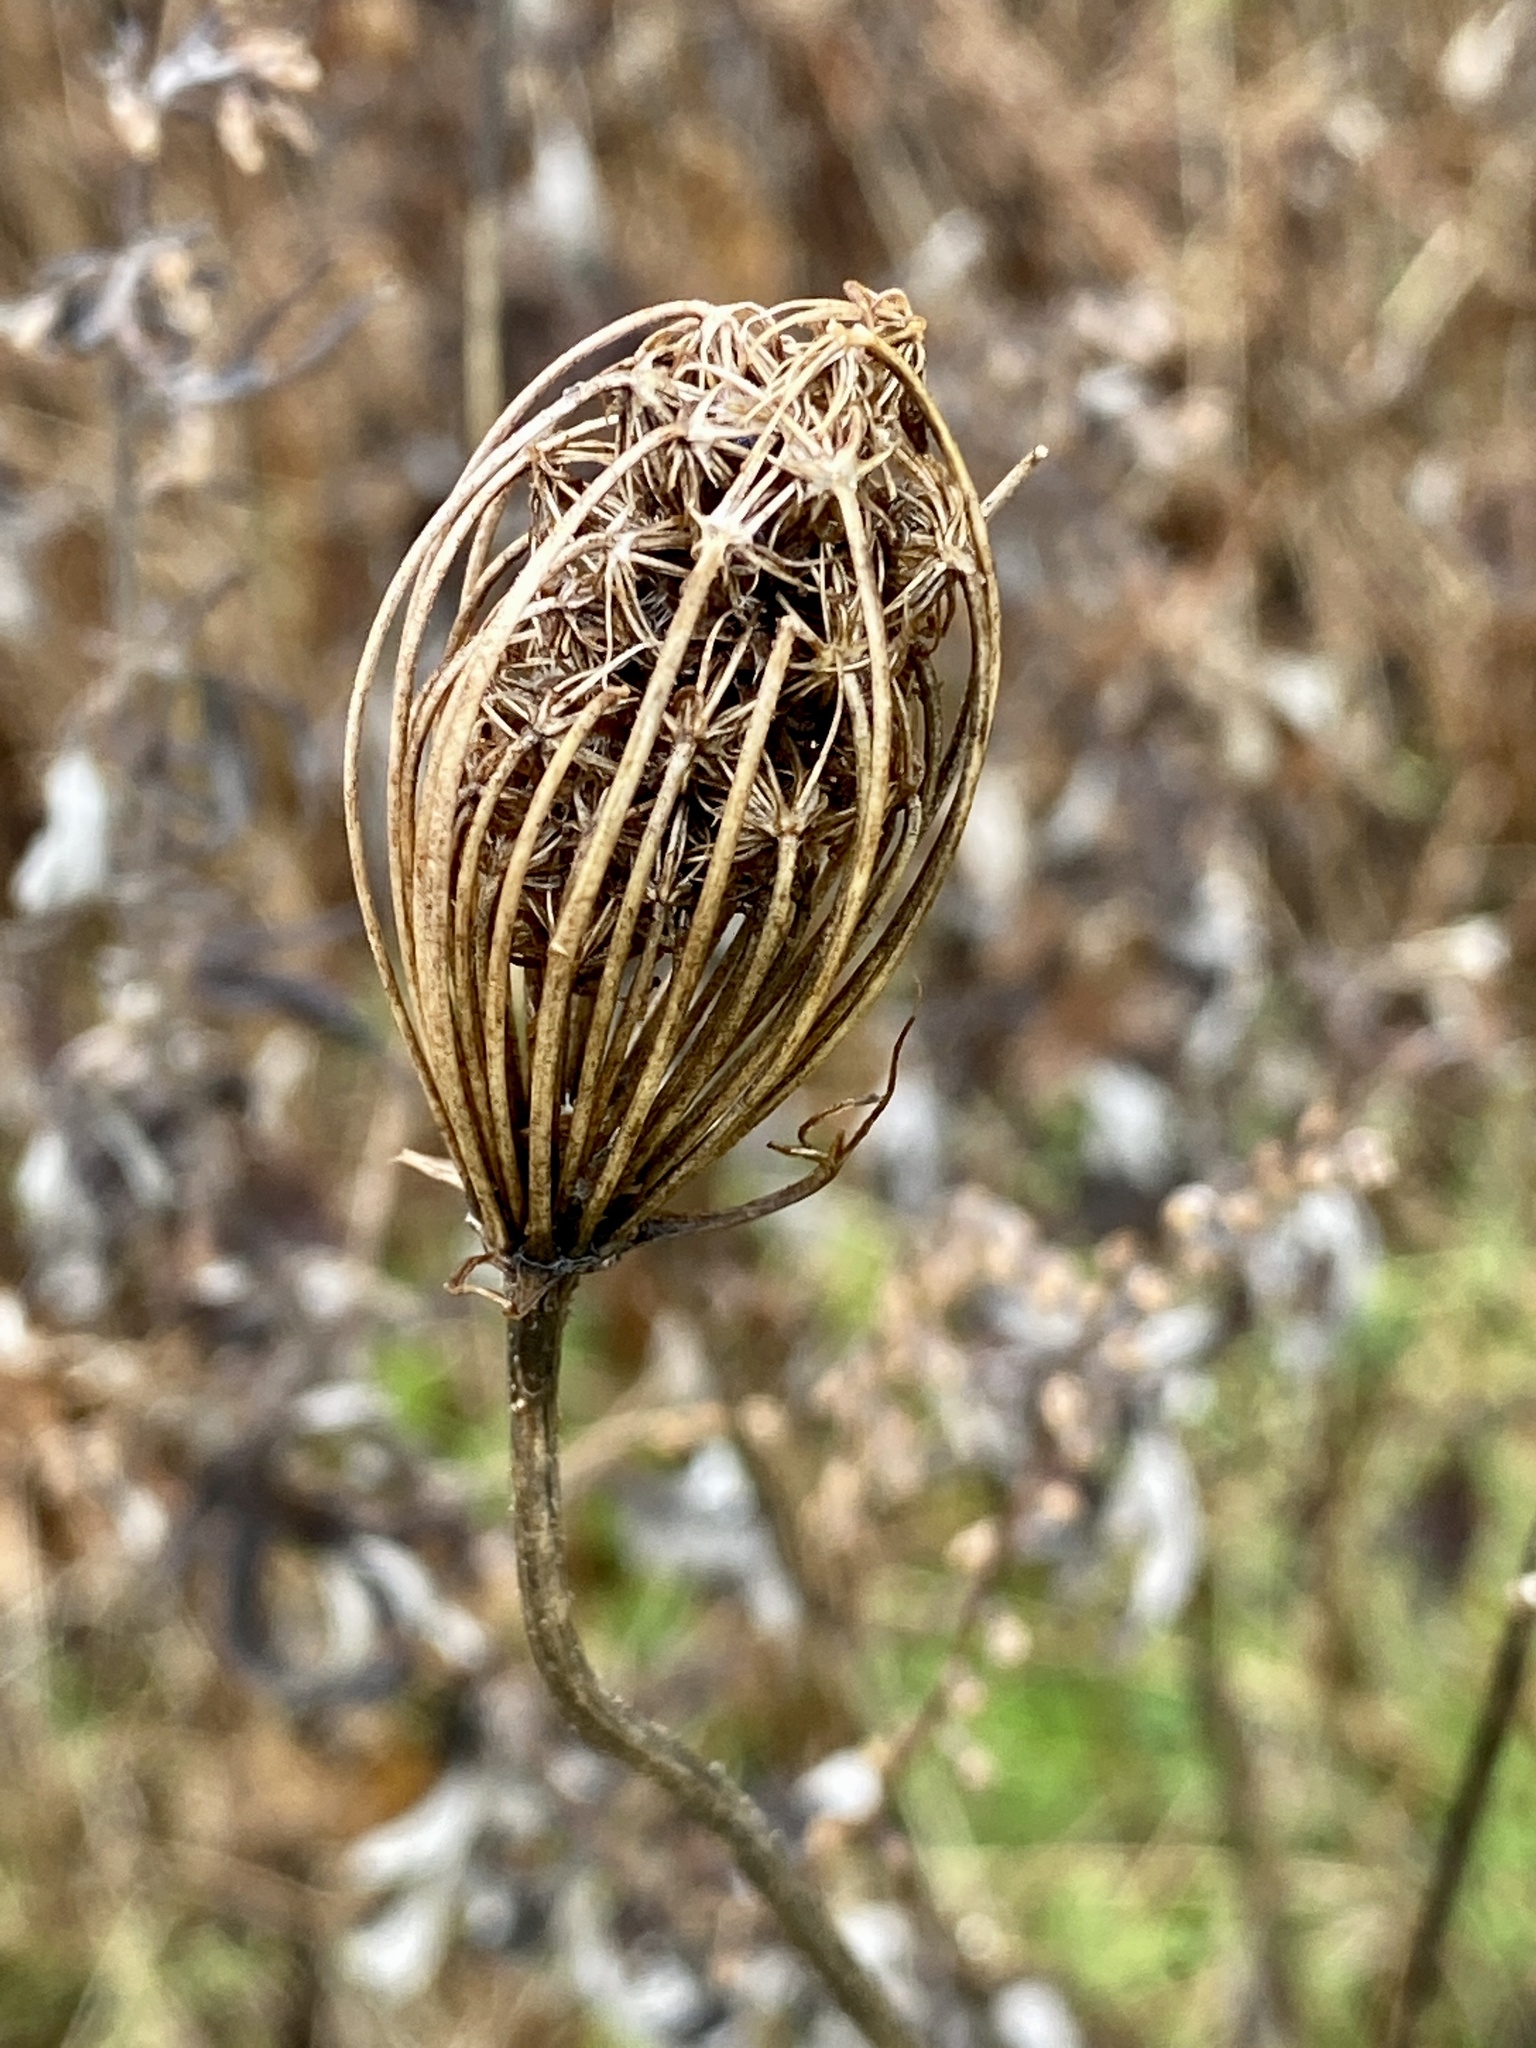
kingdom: Plantae
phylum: Tracheophyta
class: Magnoliopsida
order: Apiales
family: Apiaceae
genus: Daucus
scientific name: Daucus carota
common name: Wild carrot
